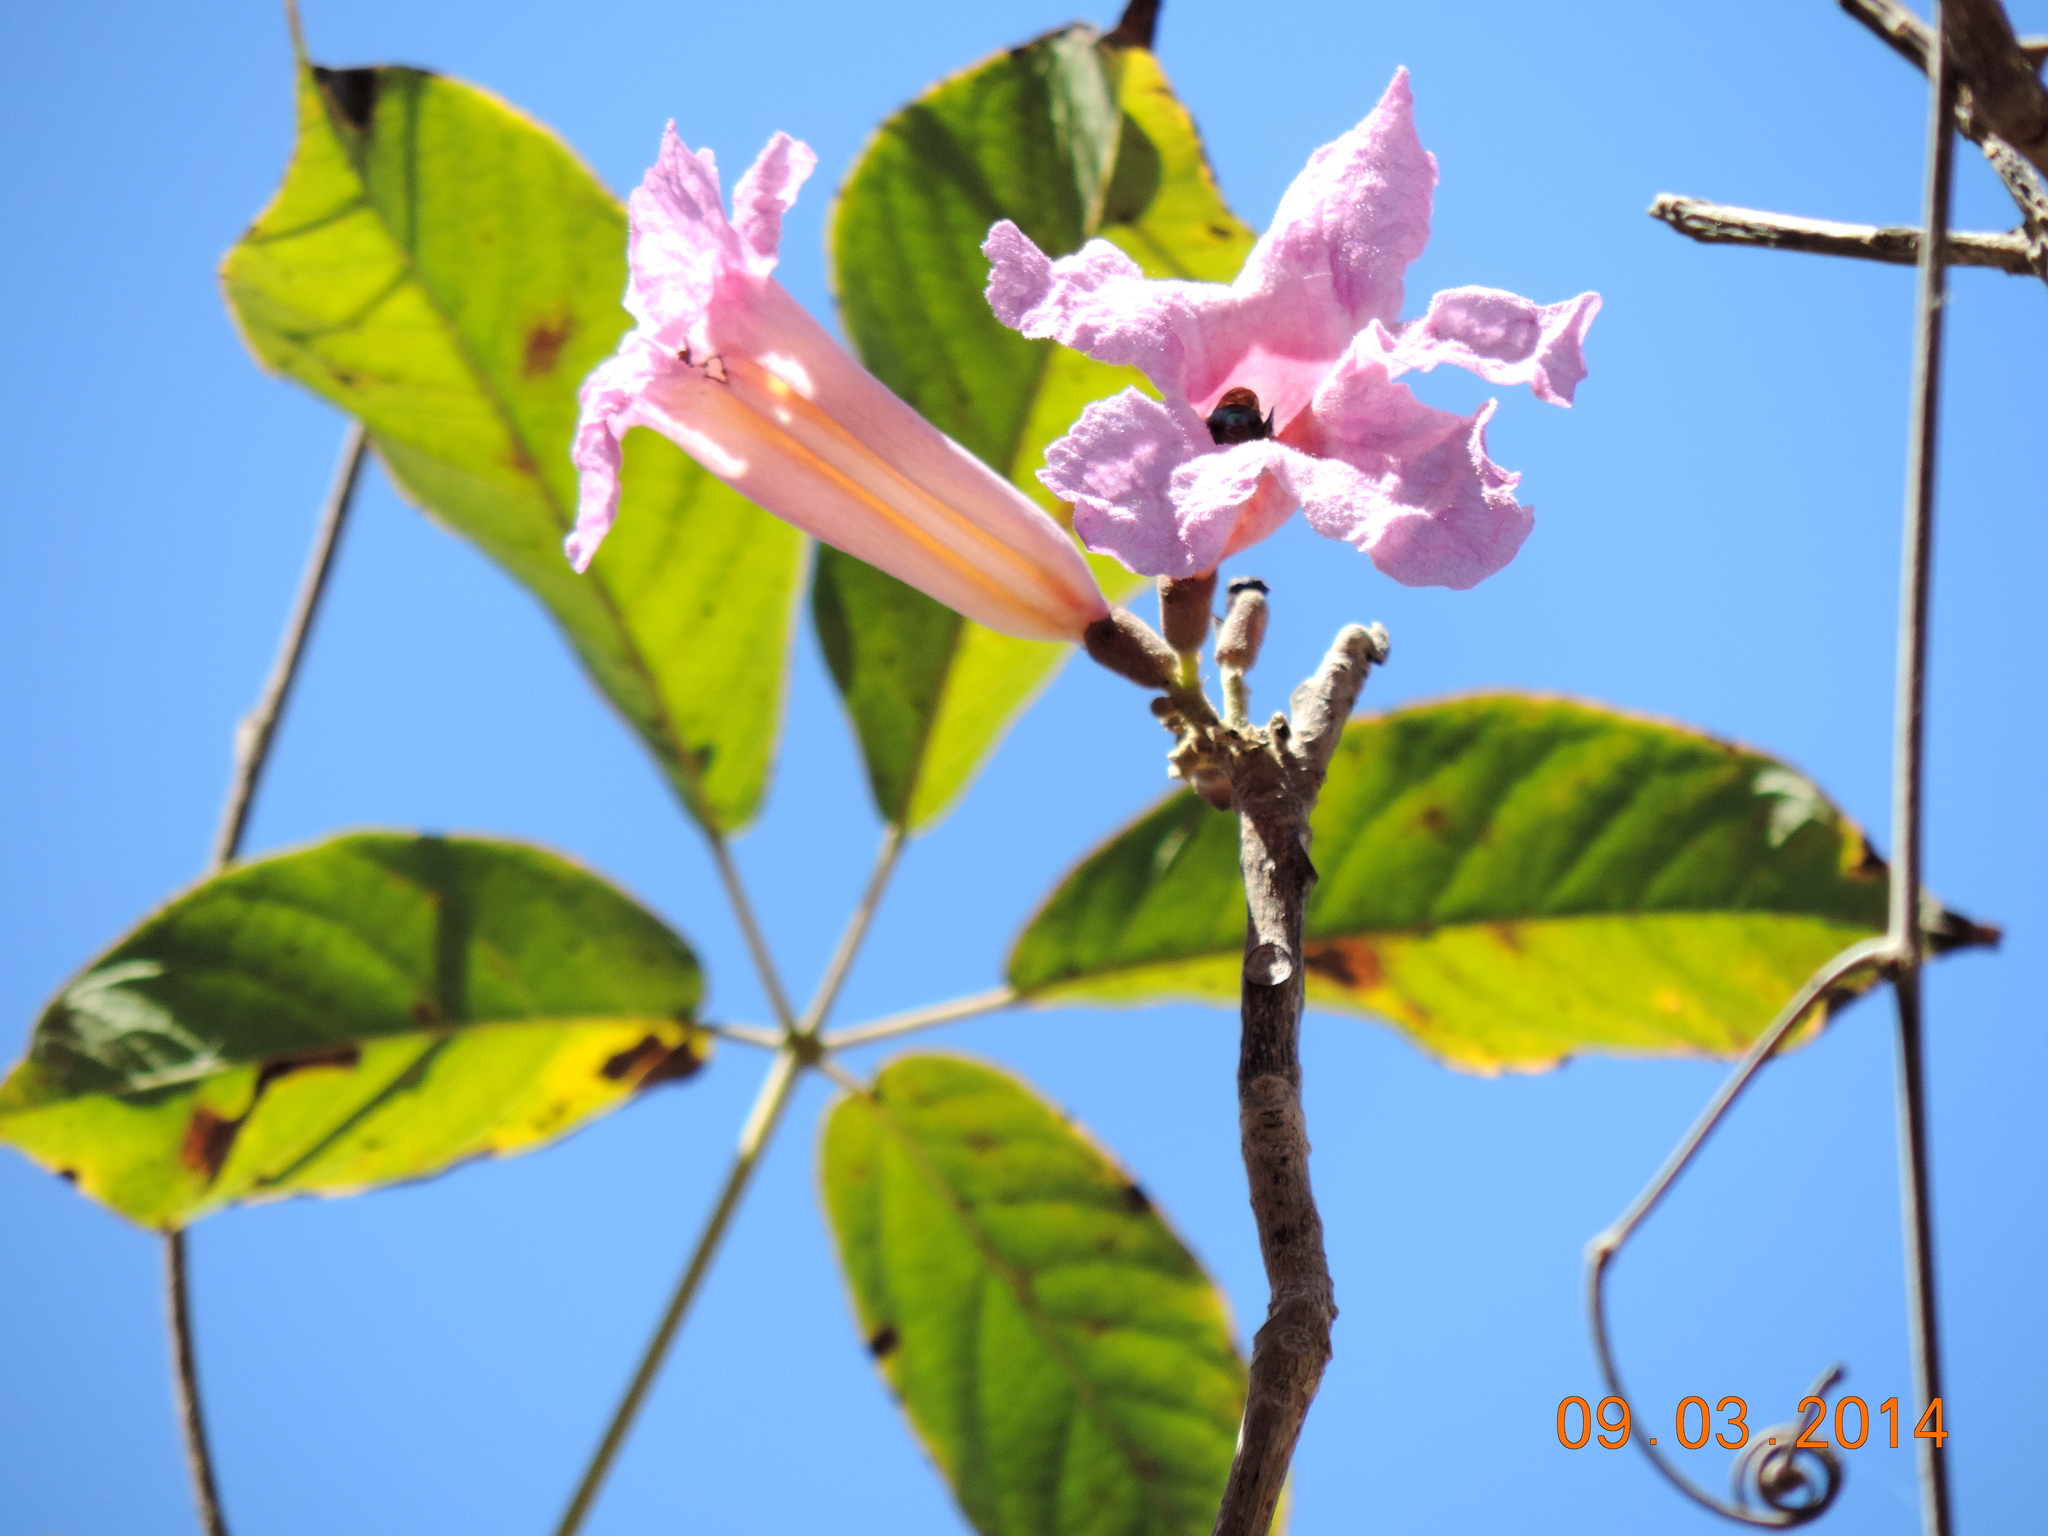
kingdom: Plantae
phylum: Tracheophyta
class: Magnoliopsida
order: Lamiales
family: Bignoniaceae
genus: Handroanthus
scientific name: Handroanthus impetiginosum
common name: Pink trumpet tree
